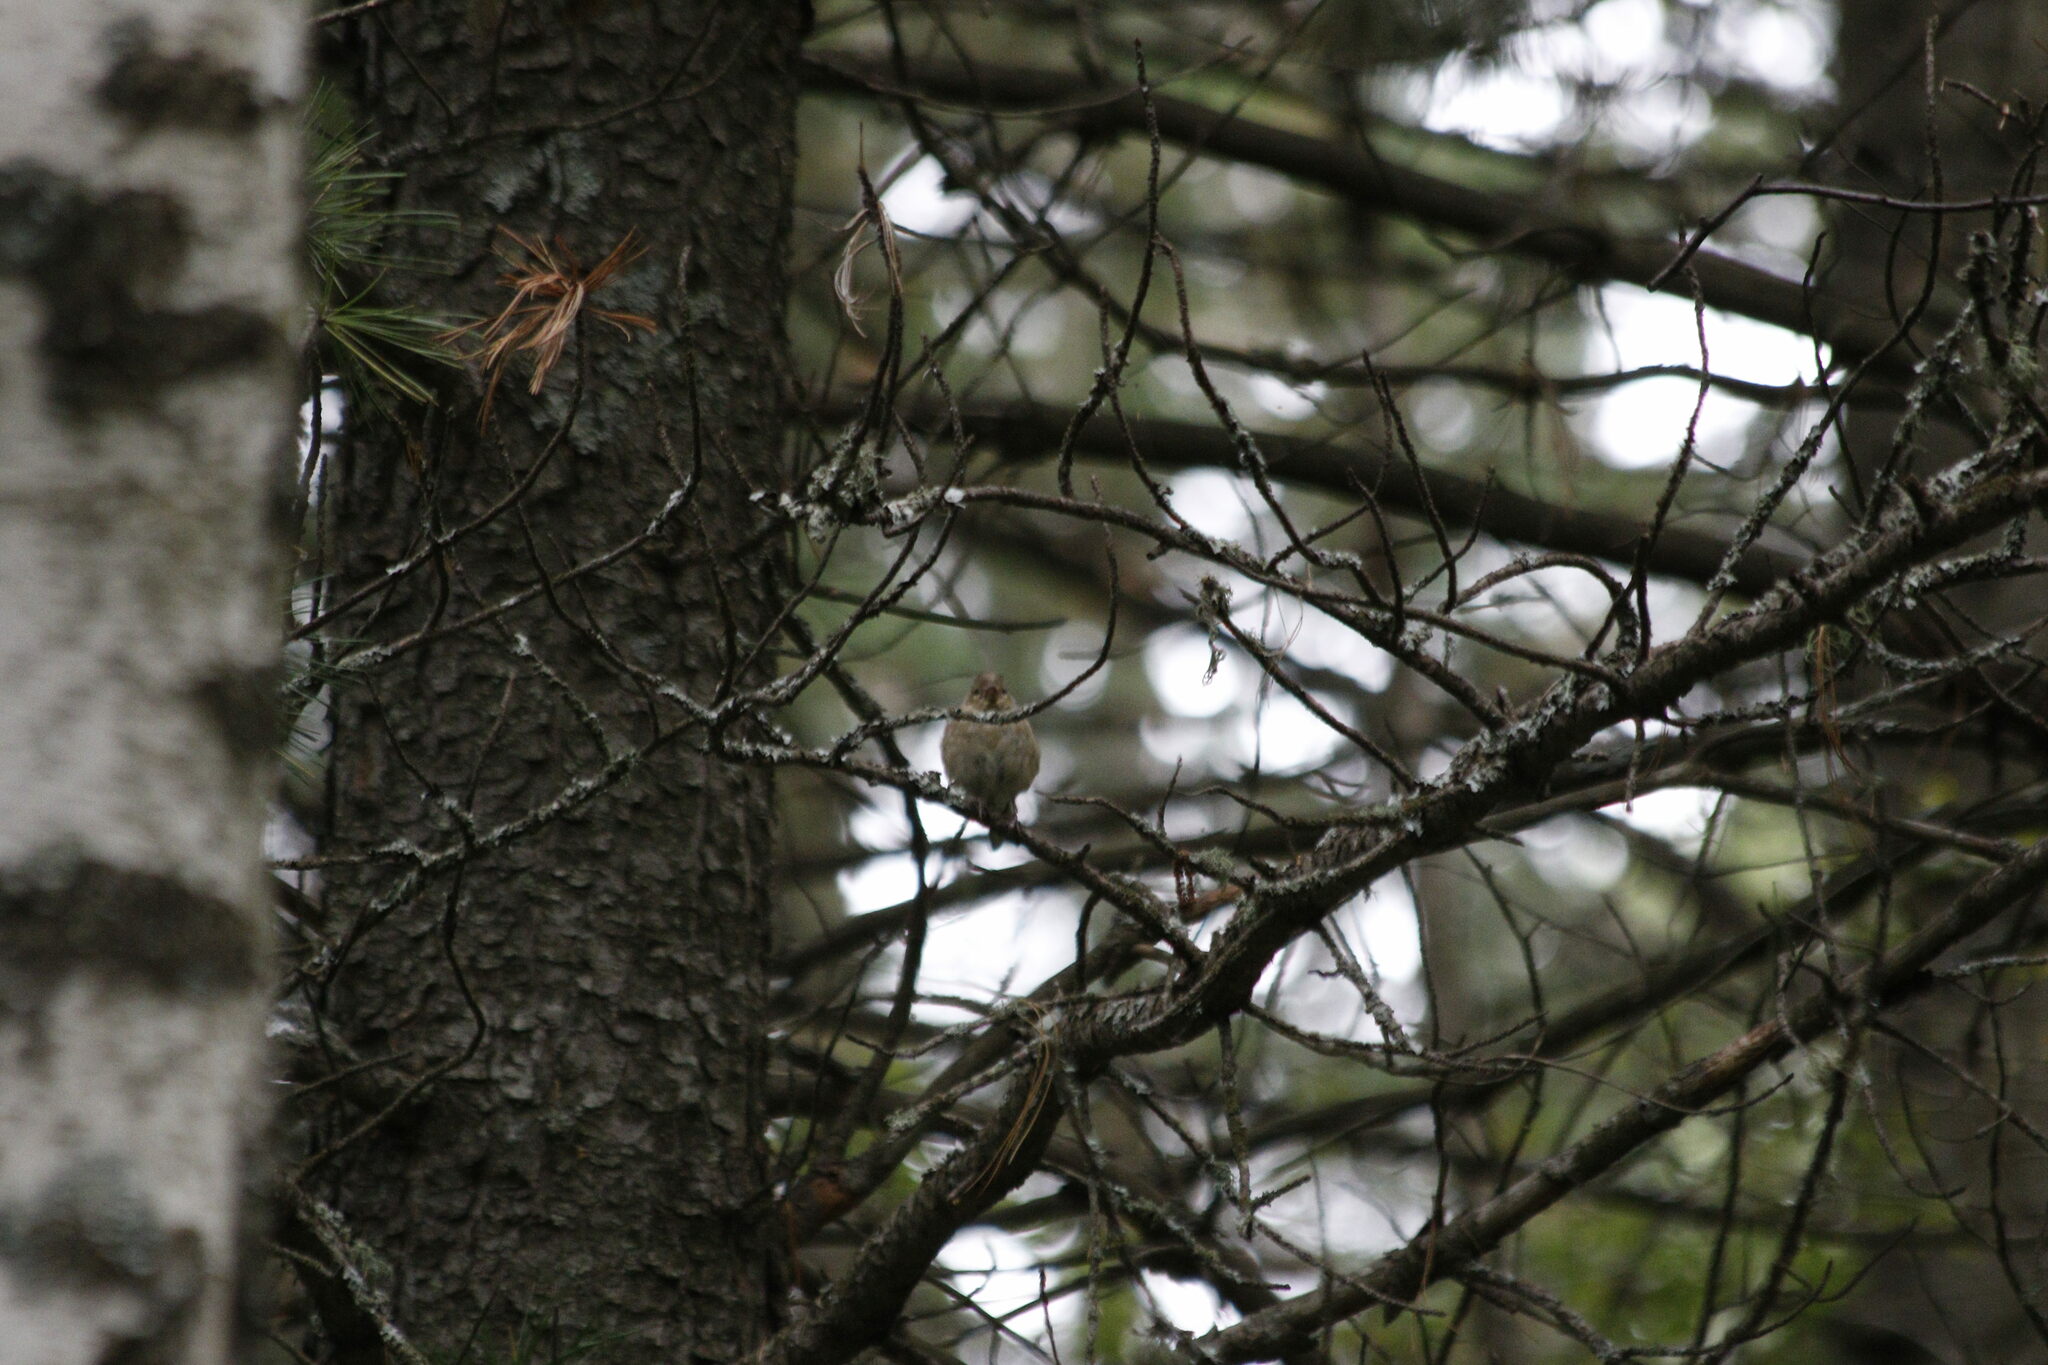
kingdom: Animalia
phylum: Chordata
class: Aves
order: Passeriformes
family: Fringillidae
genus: Fringilla
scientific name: Fringilla coelebs
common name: Common chaffinch
